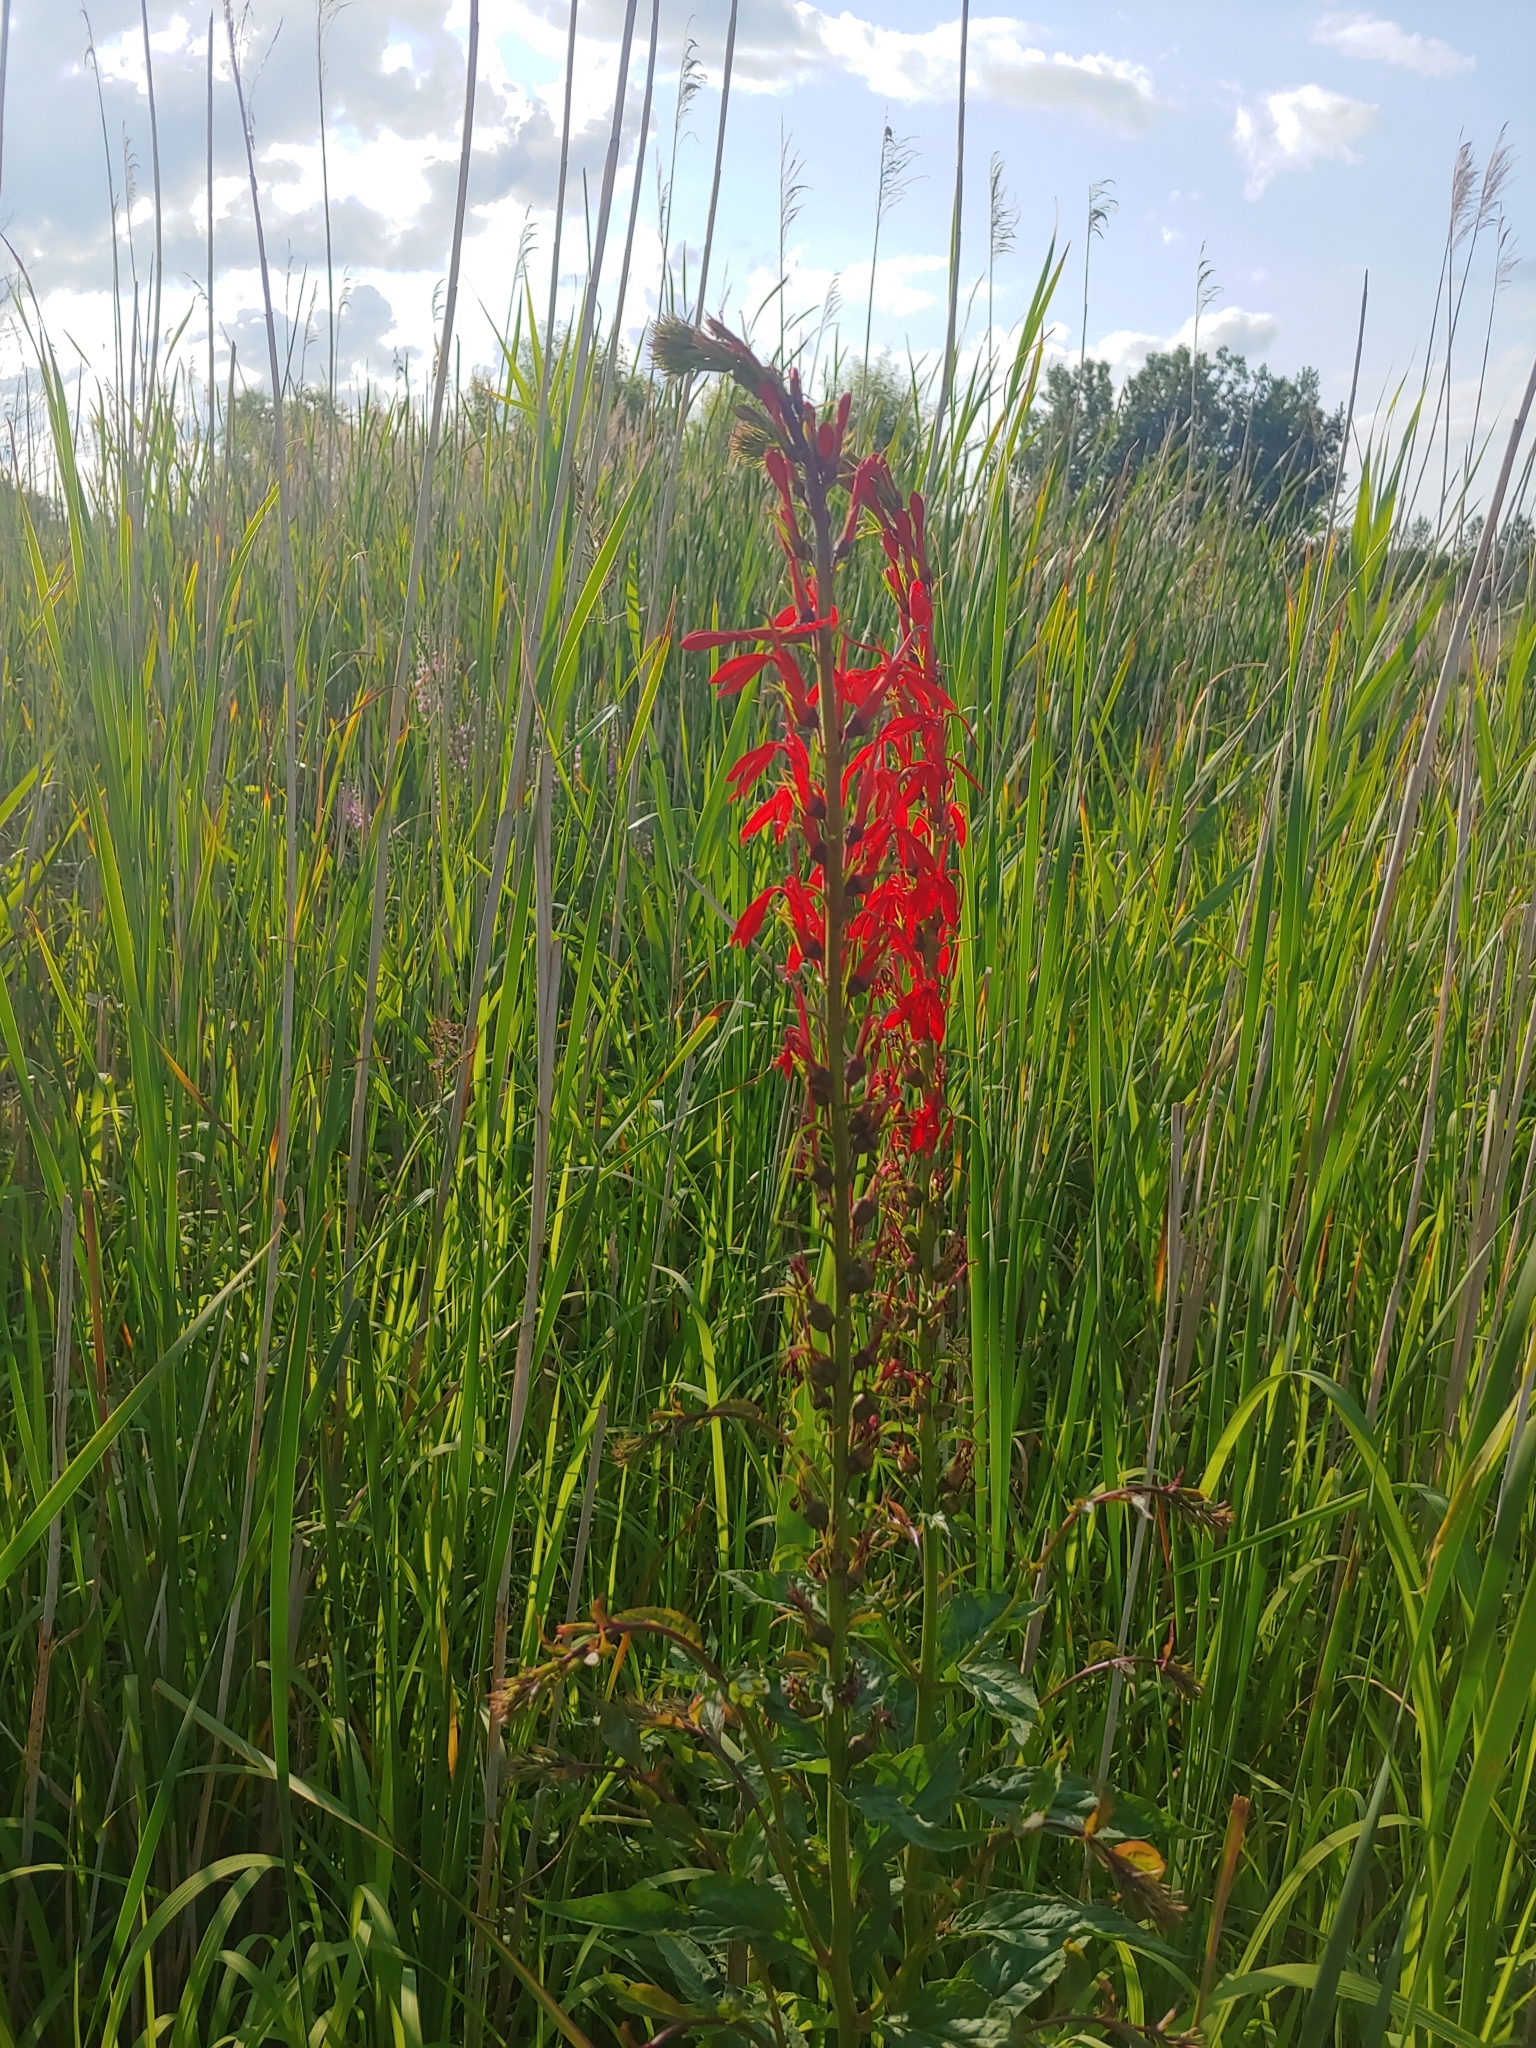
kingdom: Plantae
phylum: Tracheophyta
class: Magnoliopsida
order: Asterales
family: Campanulaceae
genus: Lobelia
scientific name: Lobelia cardinalis
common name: Cardinal flower
